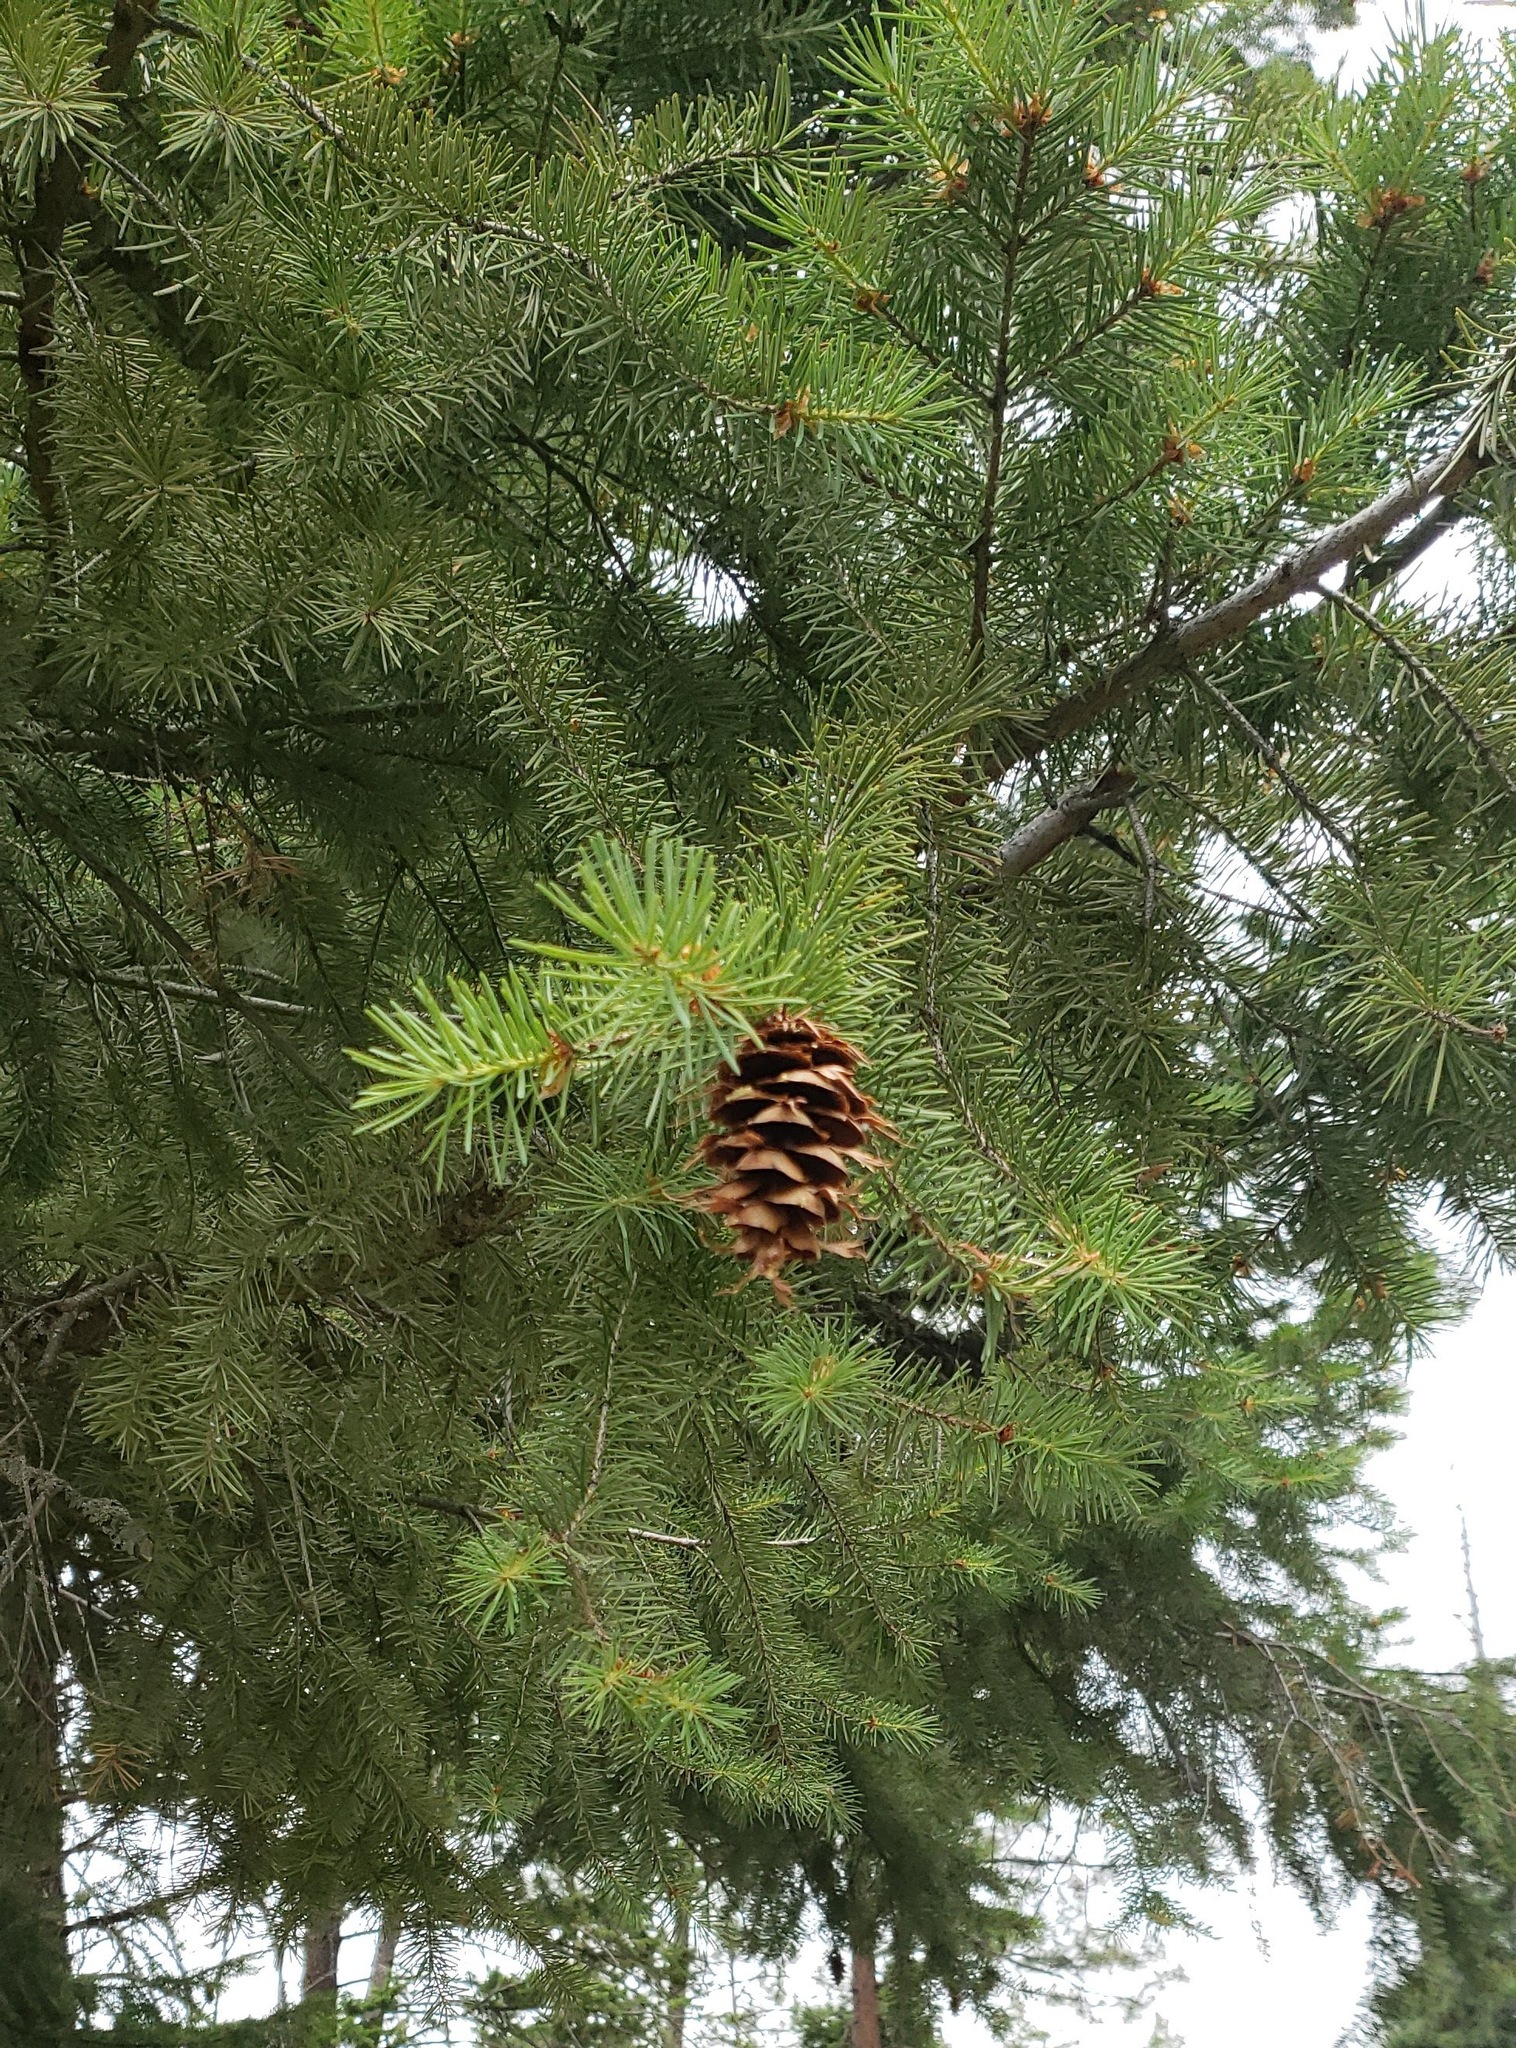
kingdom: Plantae
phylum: Tracheophyta
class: Pinopsida
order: Pinales
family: Pinaceae
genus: Pseudotsuga
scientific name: Pseudotsuga menziesii
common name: Douglas fir
